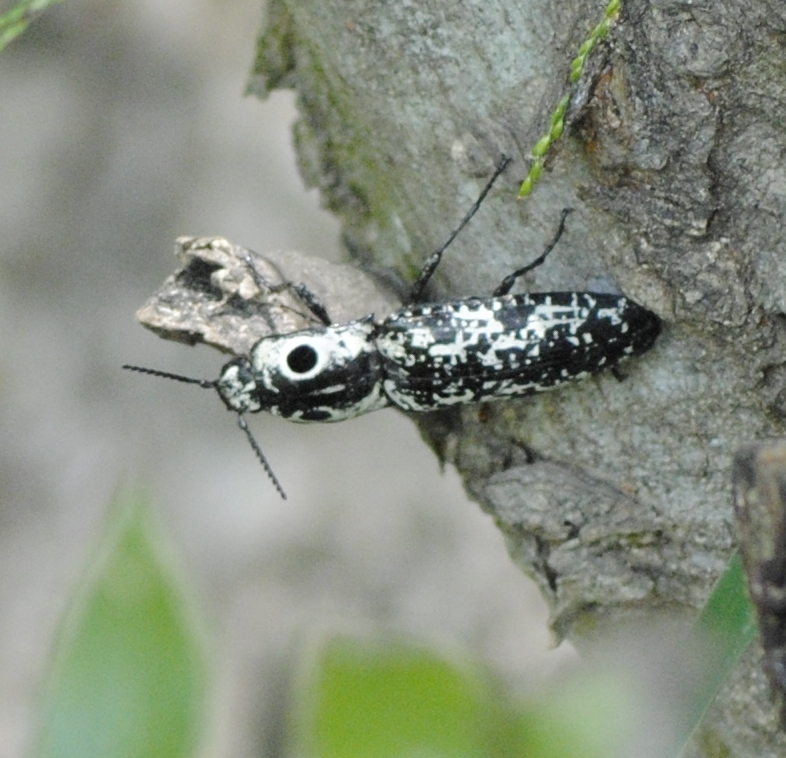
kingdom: Animalia
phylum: Arthropoda
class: Insecta
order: Coleoptera
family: Elateridae
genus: Alaus
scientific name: Alaus
